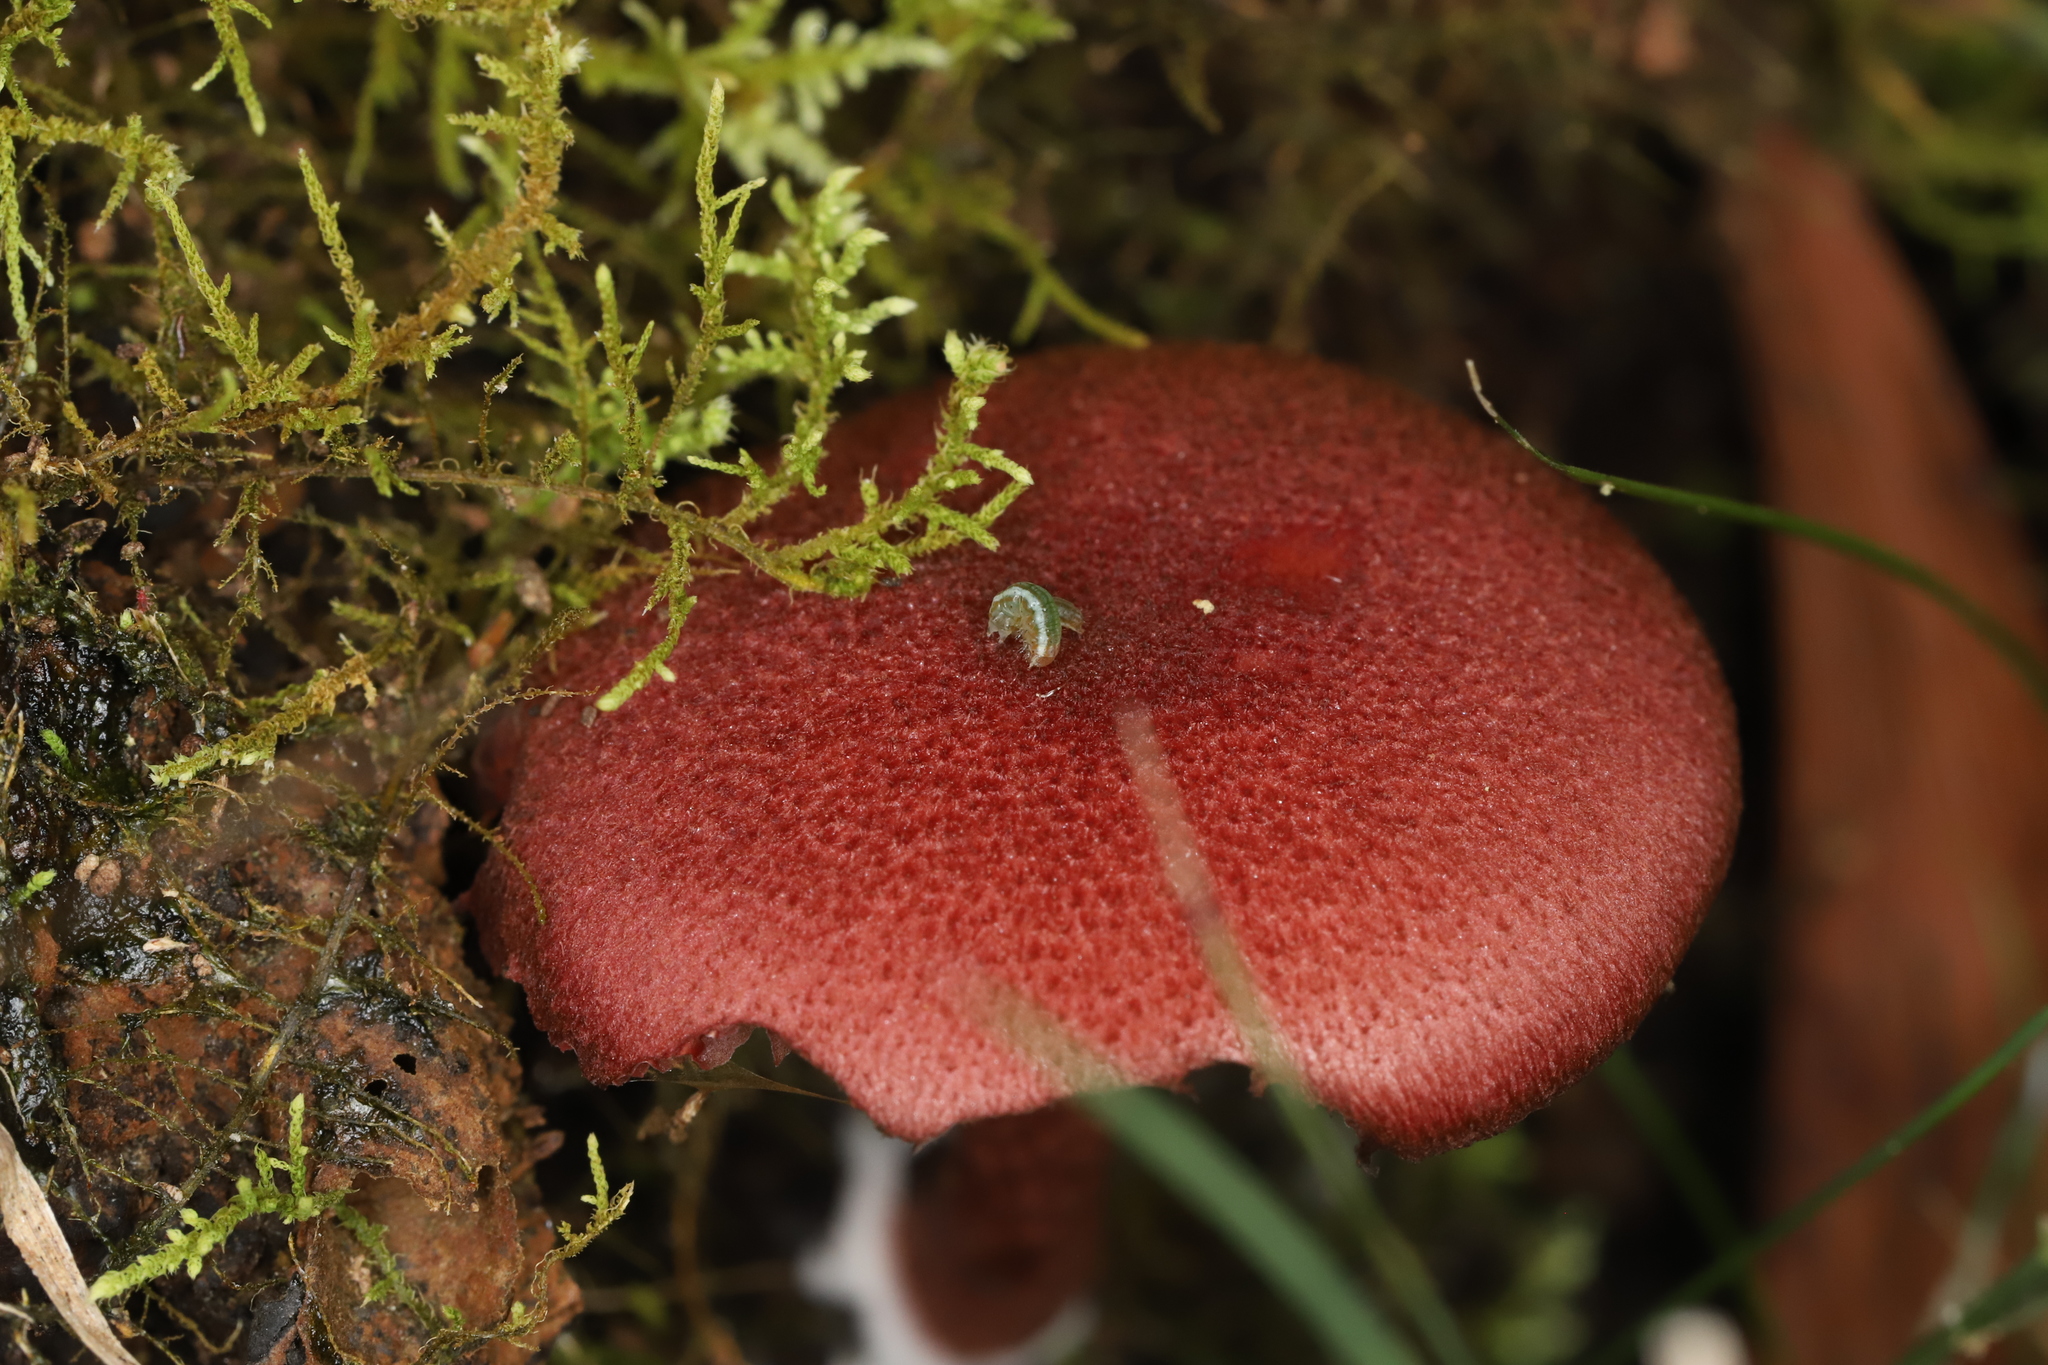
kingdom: Fungi
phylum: Basidiomycota
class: Agaricomycetes
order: Agaricales
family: Tubariaceae
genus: Tubaria
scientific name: Tubaria rufofulva
